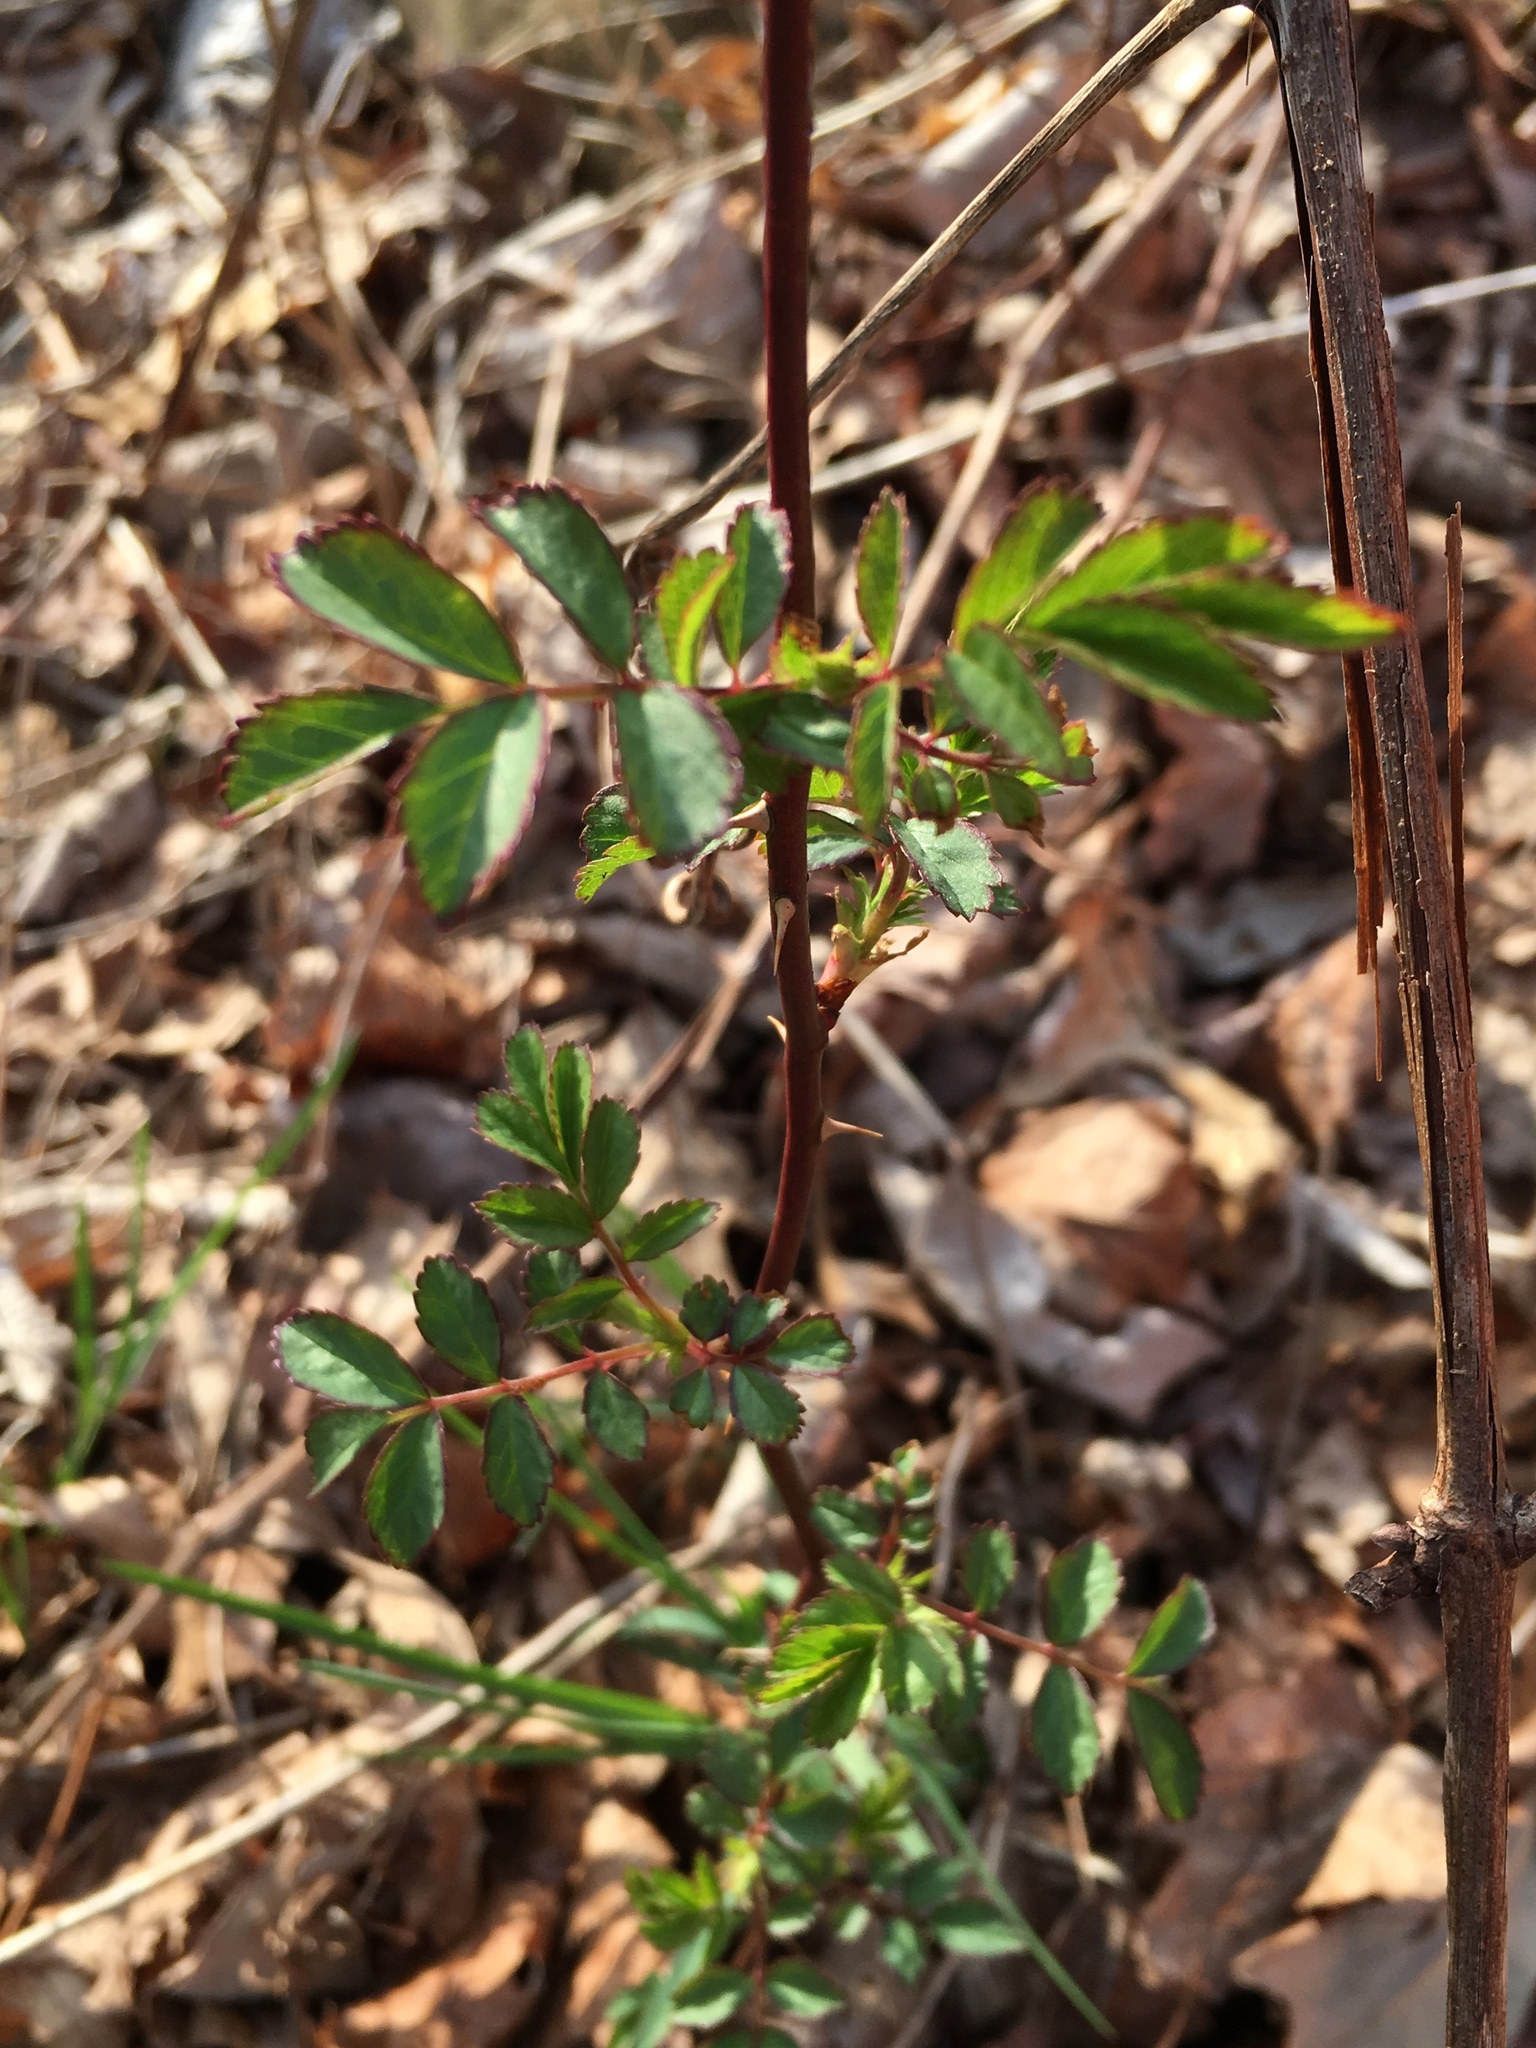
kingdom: Plantae
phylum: Tracheophyta
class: Magnoliopsida
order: Rosales
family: Rosaceae
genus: Rosa
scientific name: Rosa multiflora
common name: Multiflora rose
